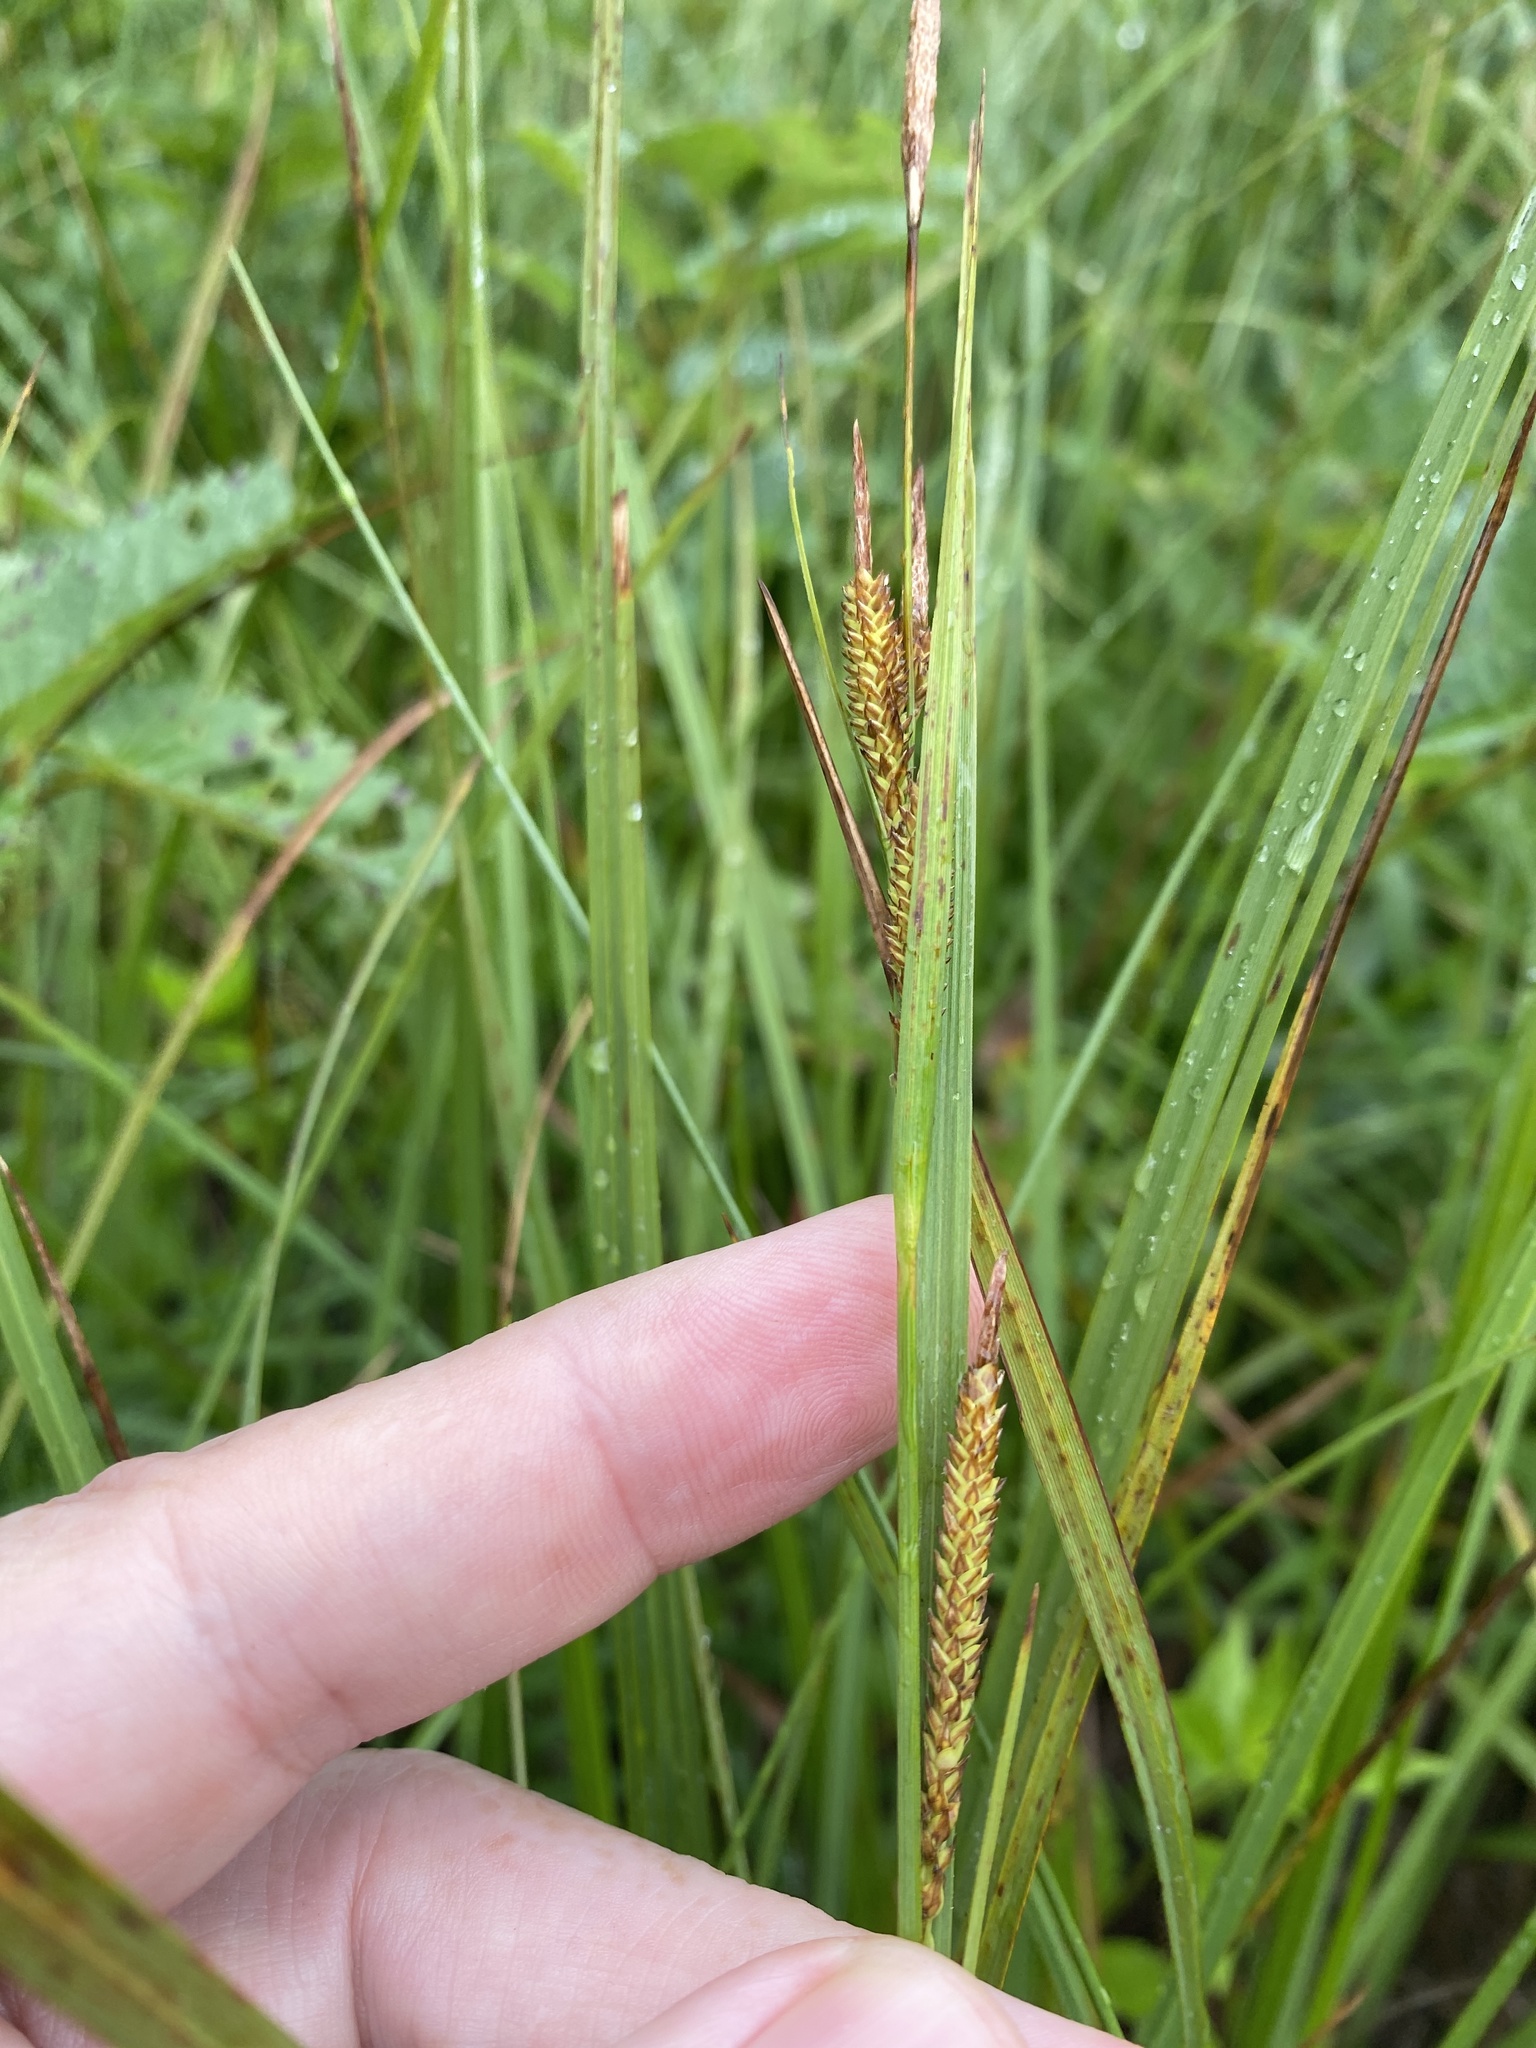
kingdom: Plantae
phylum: Tracheophyta
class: Liliopsida
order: Poales
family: Cyperaceae
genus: Carex
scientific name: Carex stricta
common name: Hummock sedge
